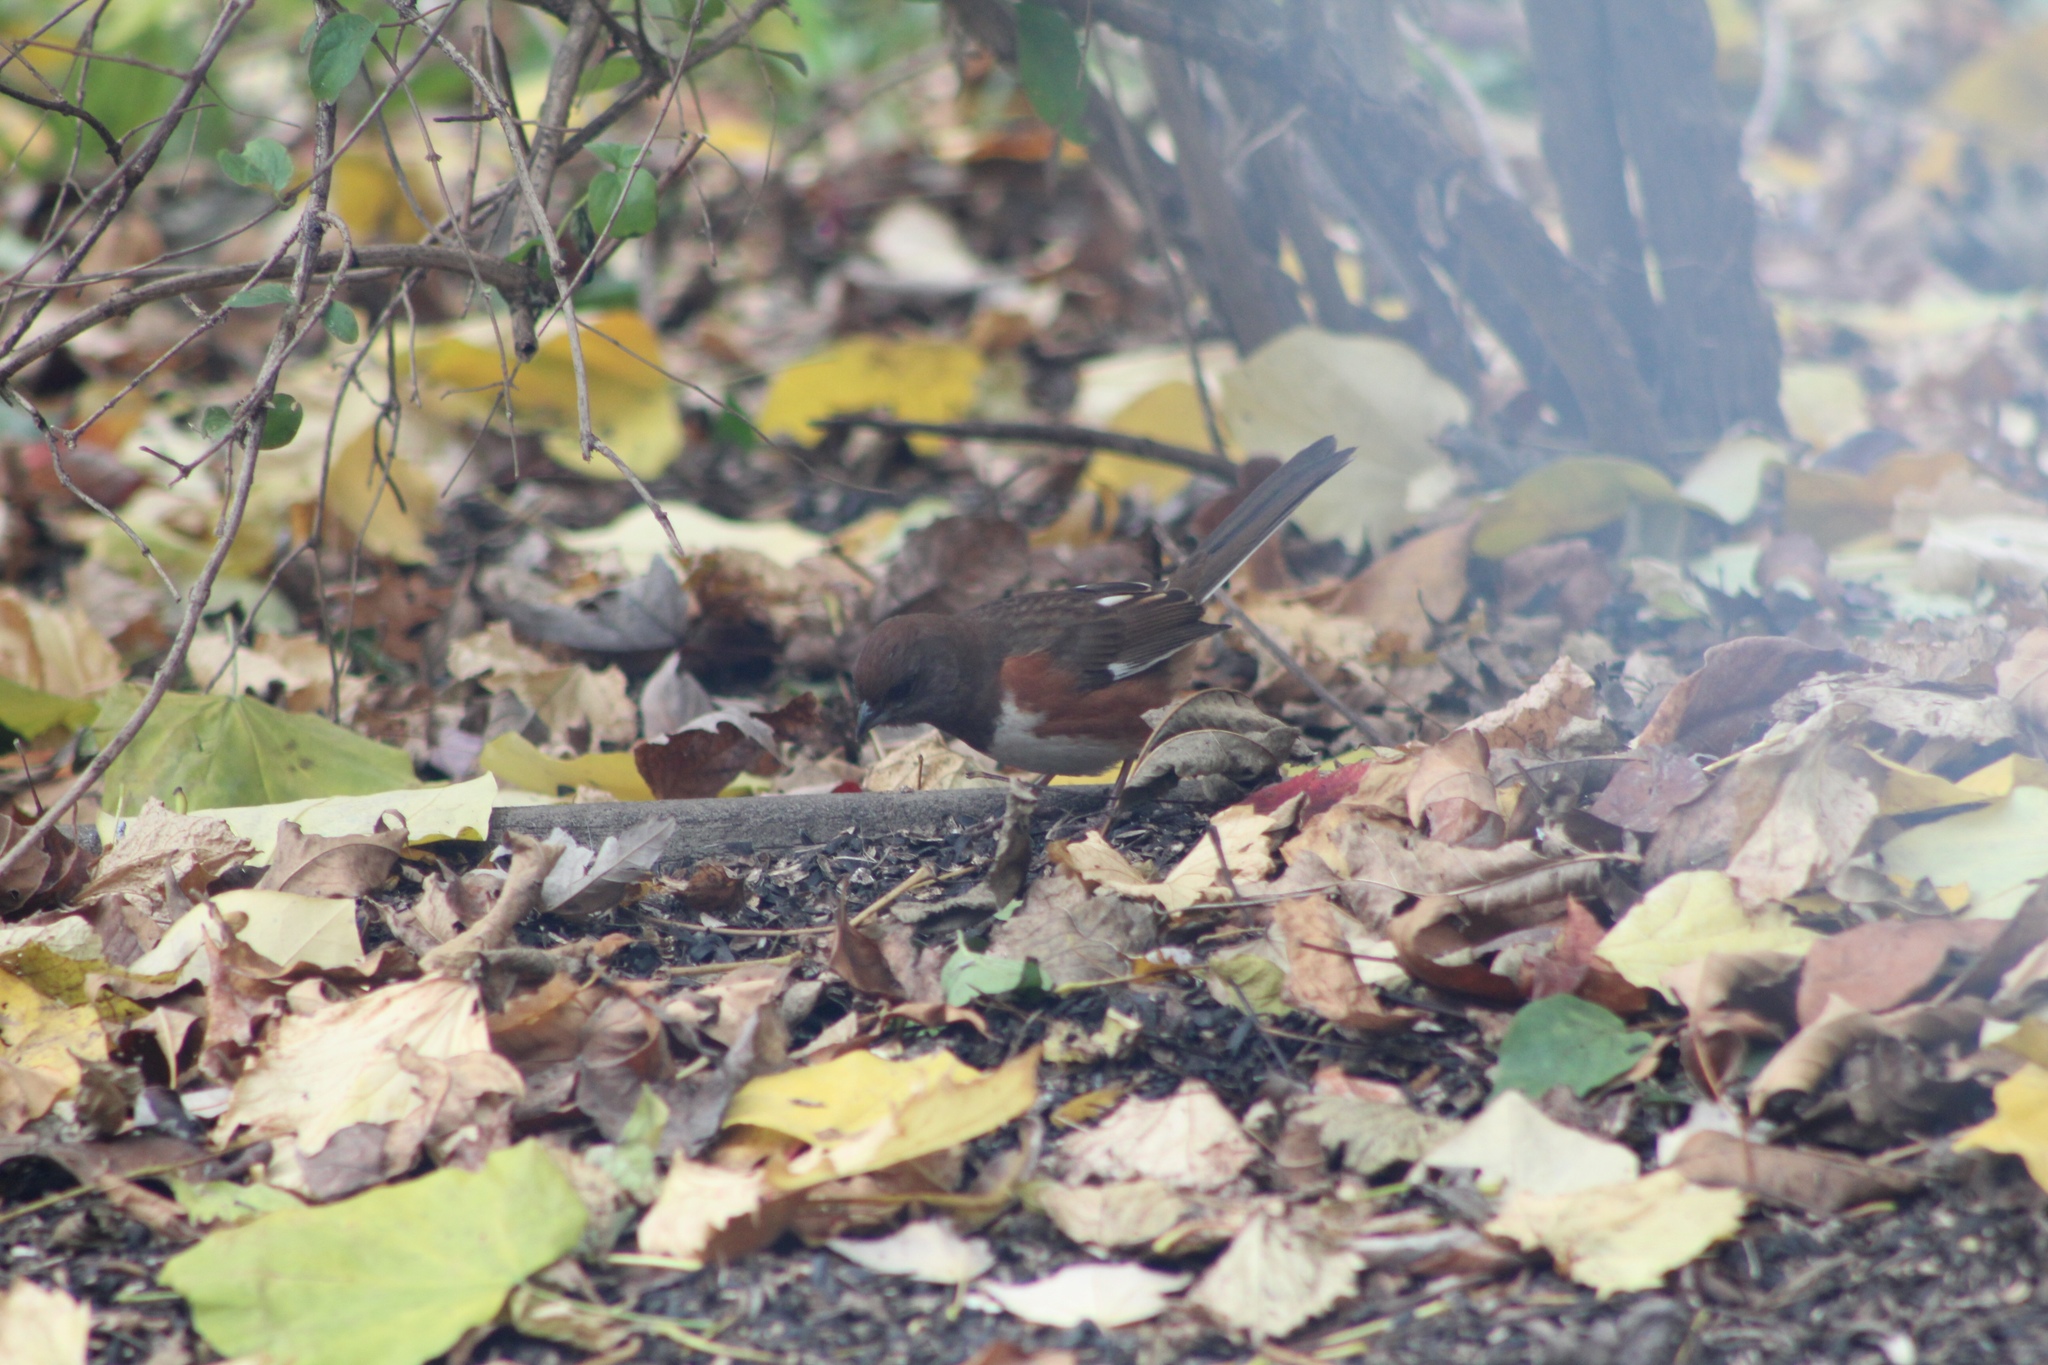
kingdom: Animalia
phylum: Chordata
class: Aves
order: Passeriformes
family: Passerellidae
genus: Pipilo
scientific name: Pipilo erythrophthalmus
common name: Eastern towhee
